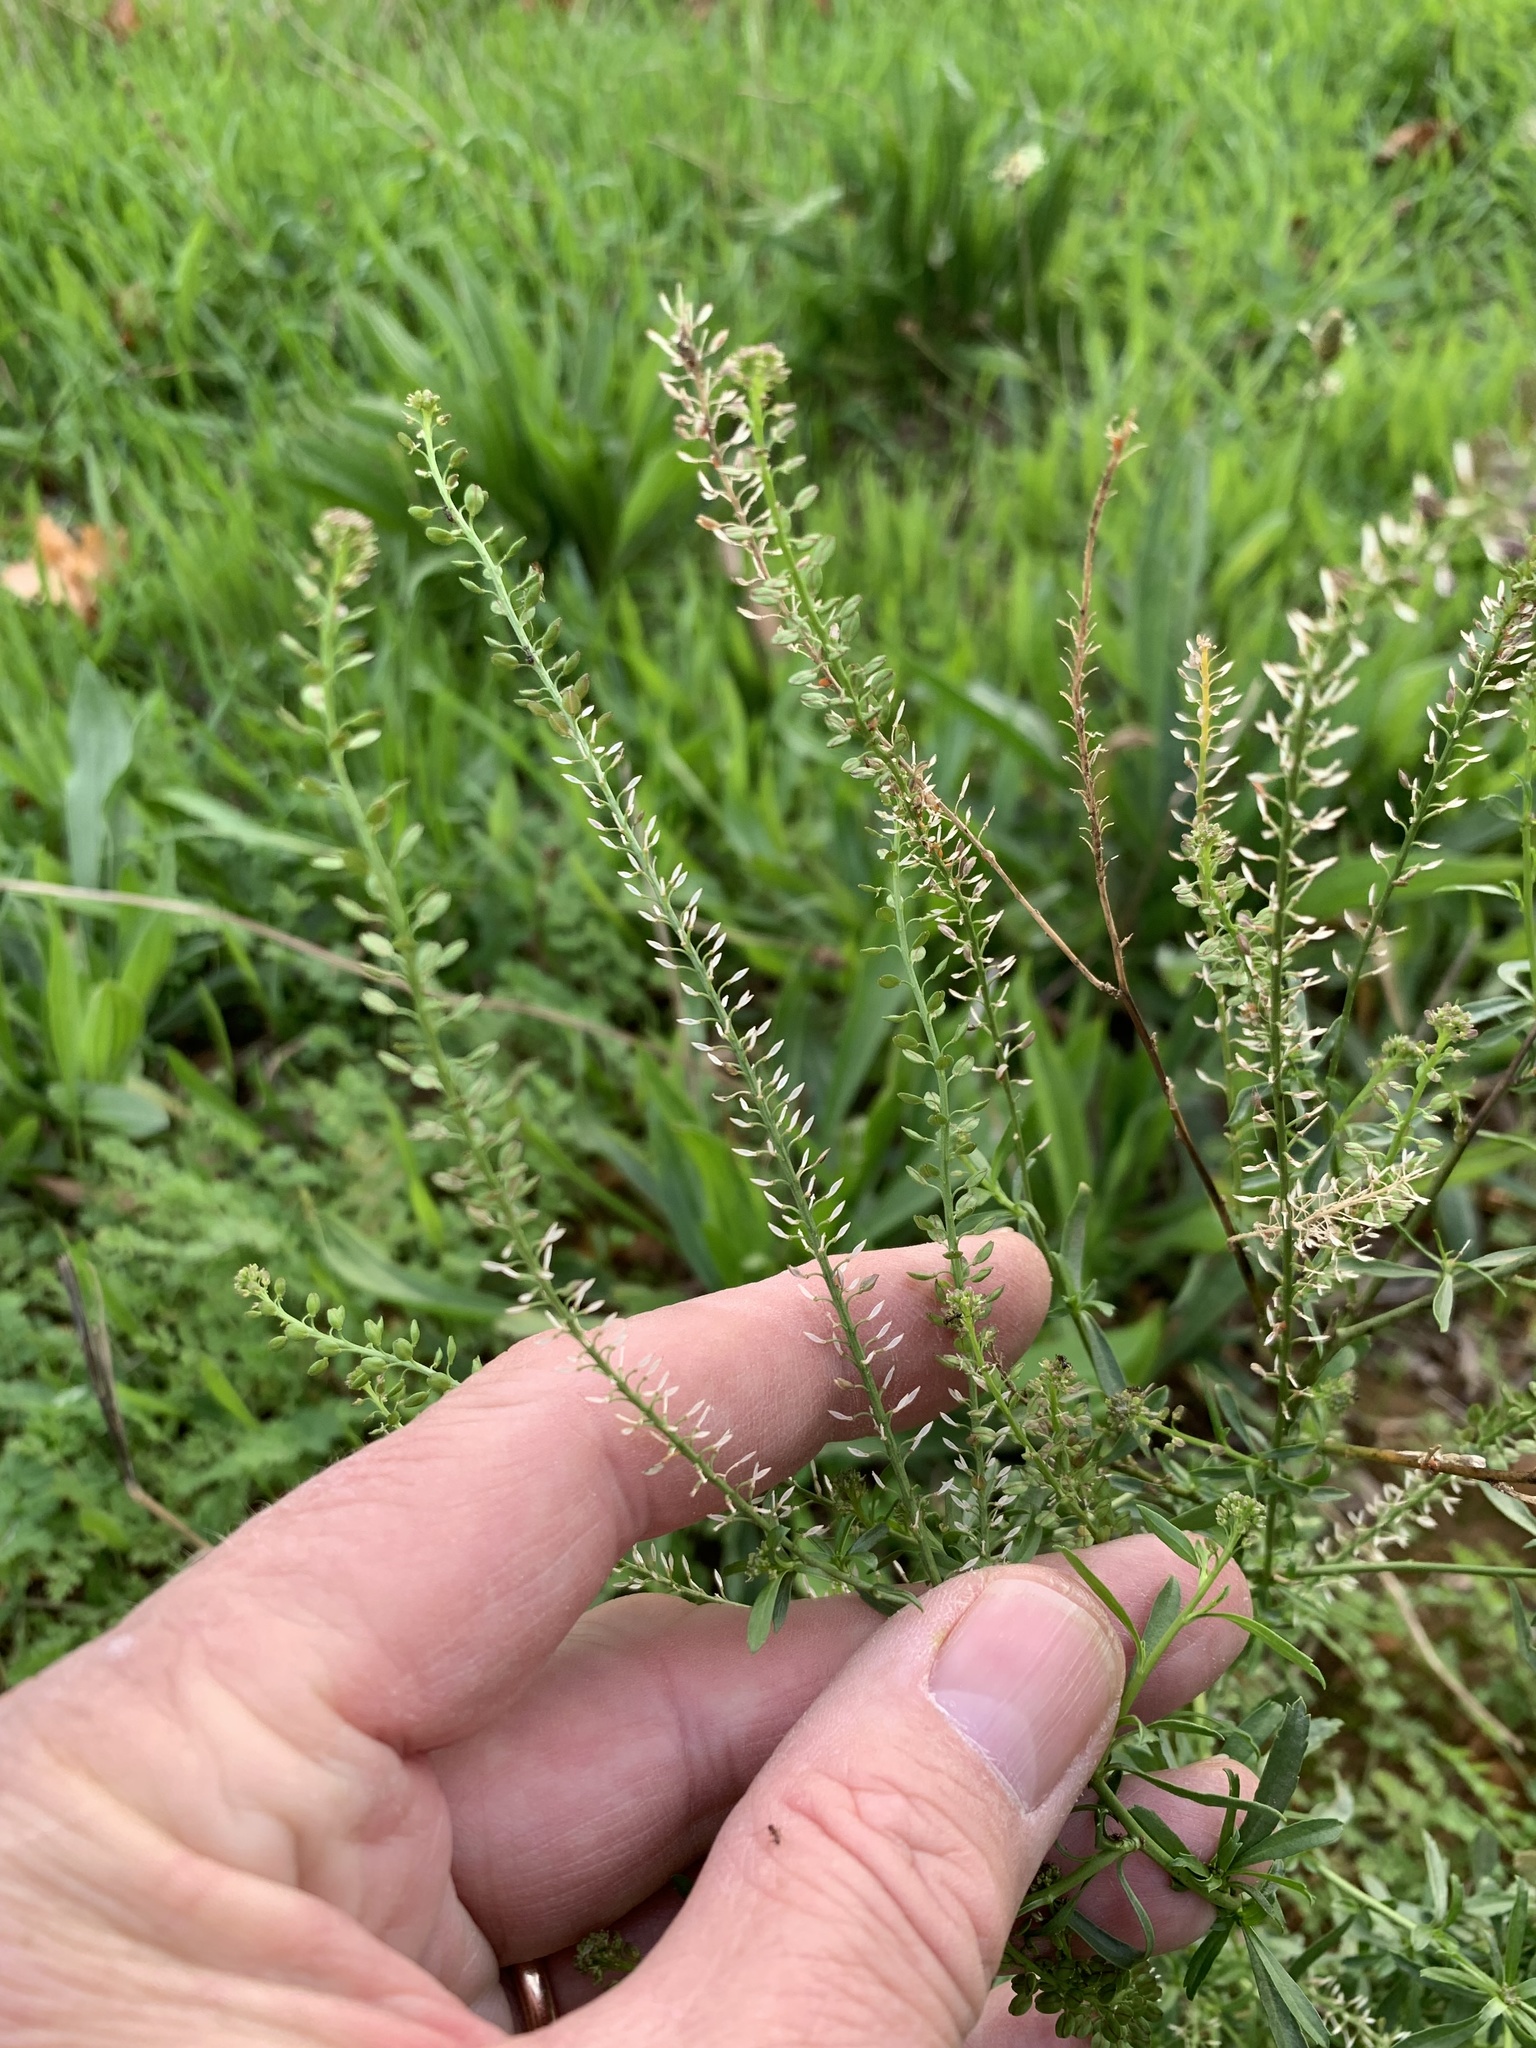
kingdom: Plantae
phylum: Tracheophyta
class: Magnoliopsida
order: Brassicales
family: Brassicaceae
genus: Lepidium
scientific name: Lepidium africanum
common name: African pepperwort
